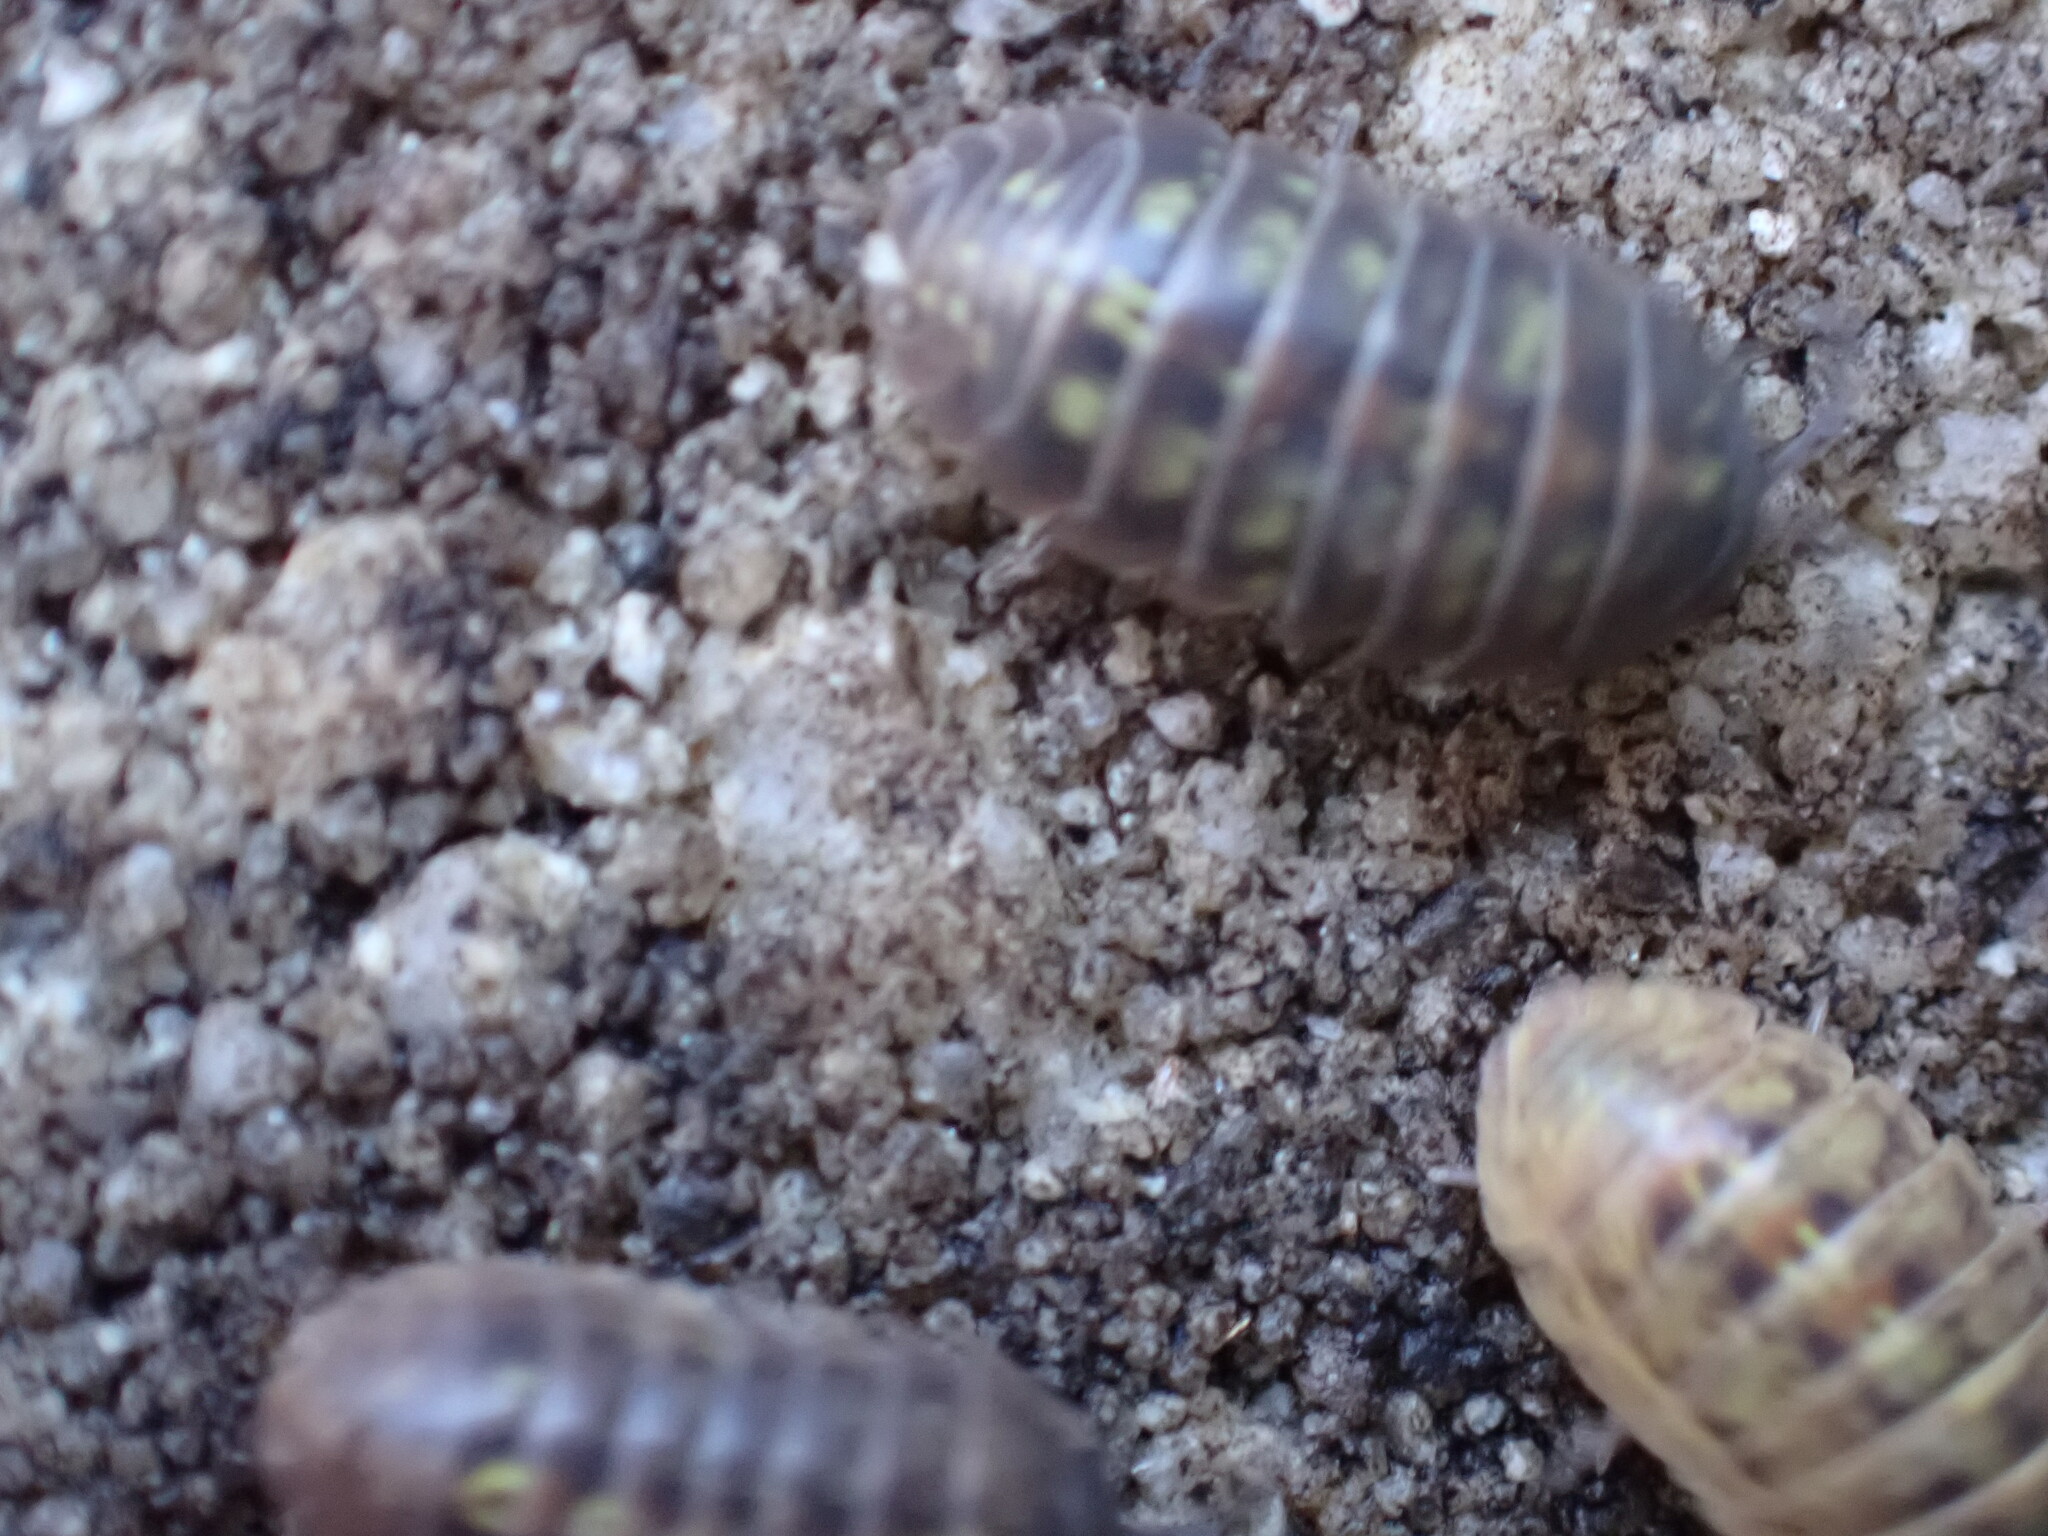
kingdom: Animalia
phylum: Arthropoda
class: Malacostraca
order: Isopoda
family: Armadillidiidae
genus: Armadillidium
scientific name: Armadillidium vulgare
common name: Common pill woodlouse
